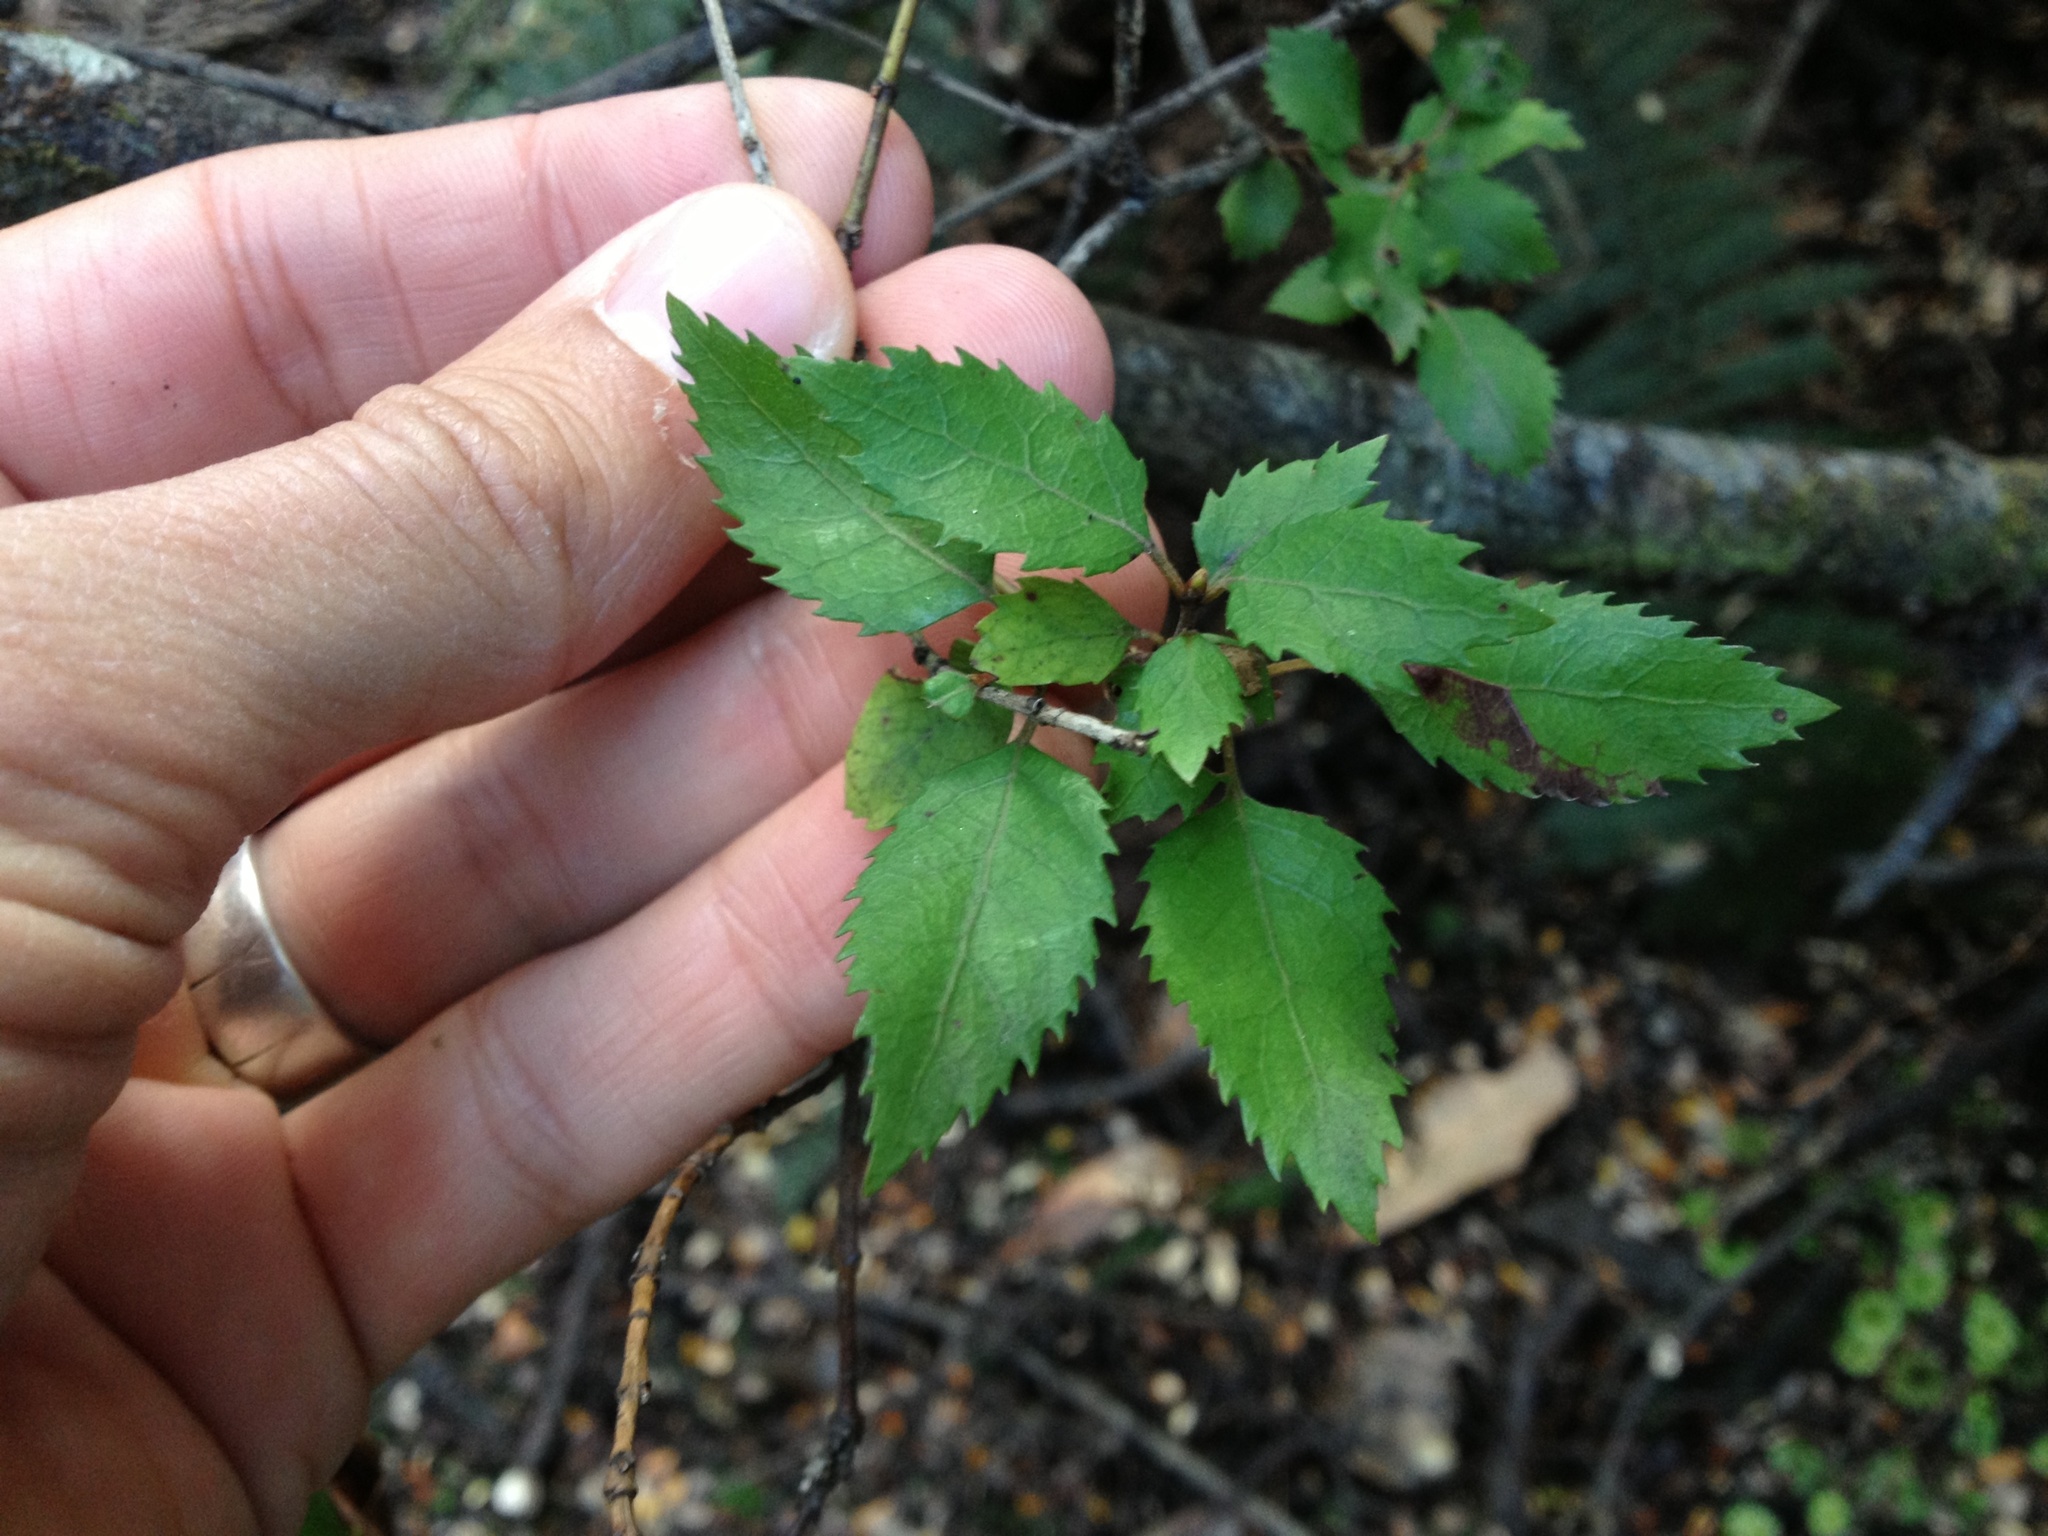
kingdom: Plantae
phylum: Tracheophyta
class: Magnoliopsida
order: Oxalidales
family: Elaeocarpaceae
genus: Aristotelia
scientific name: Aristotelia
